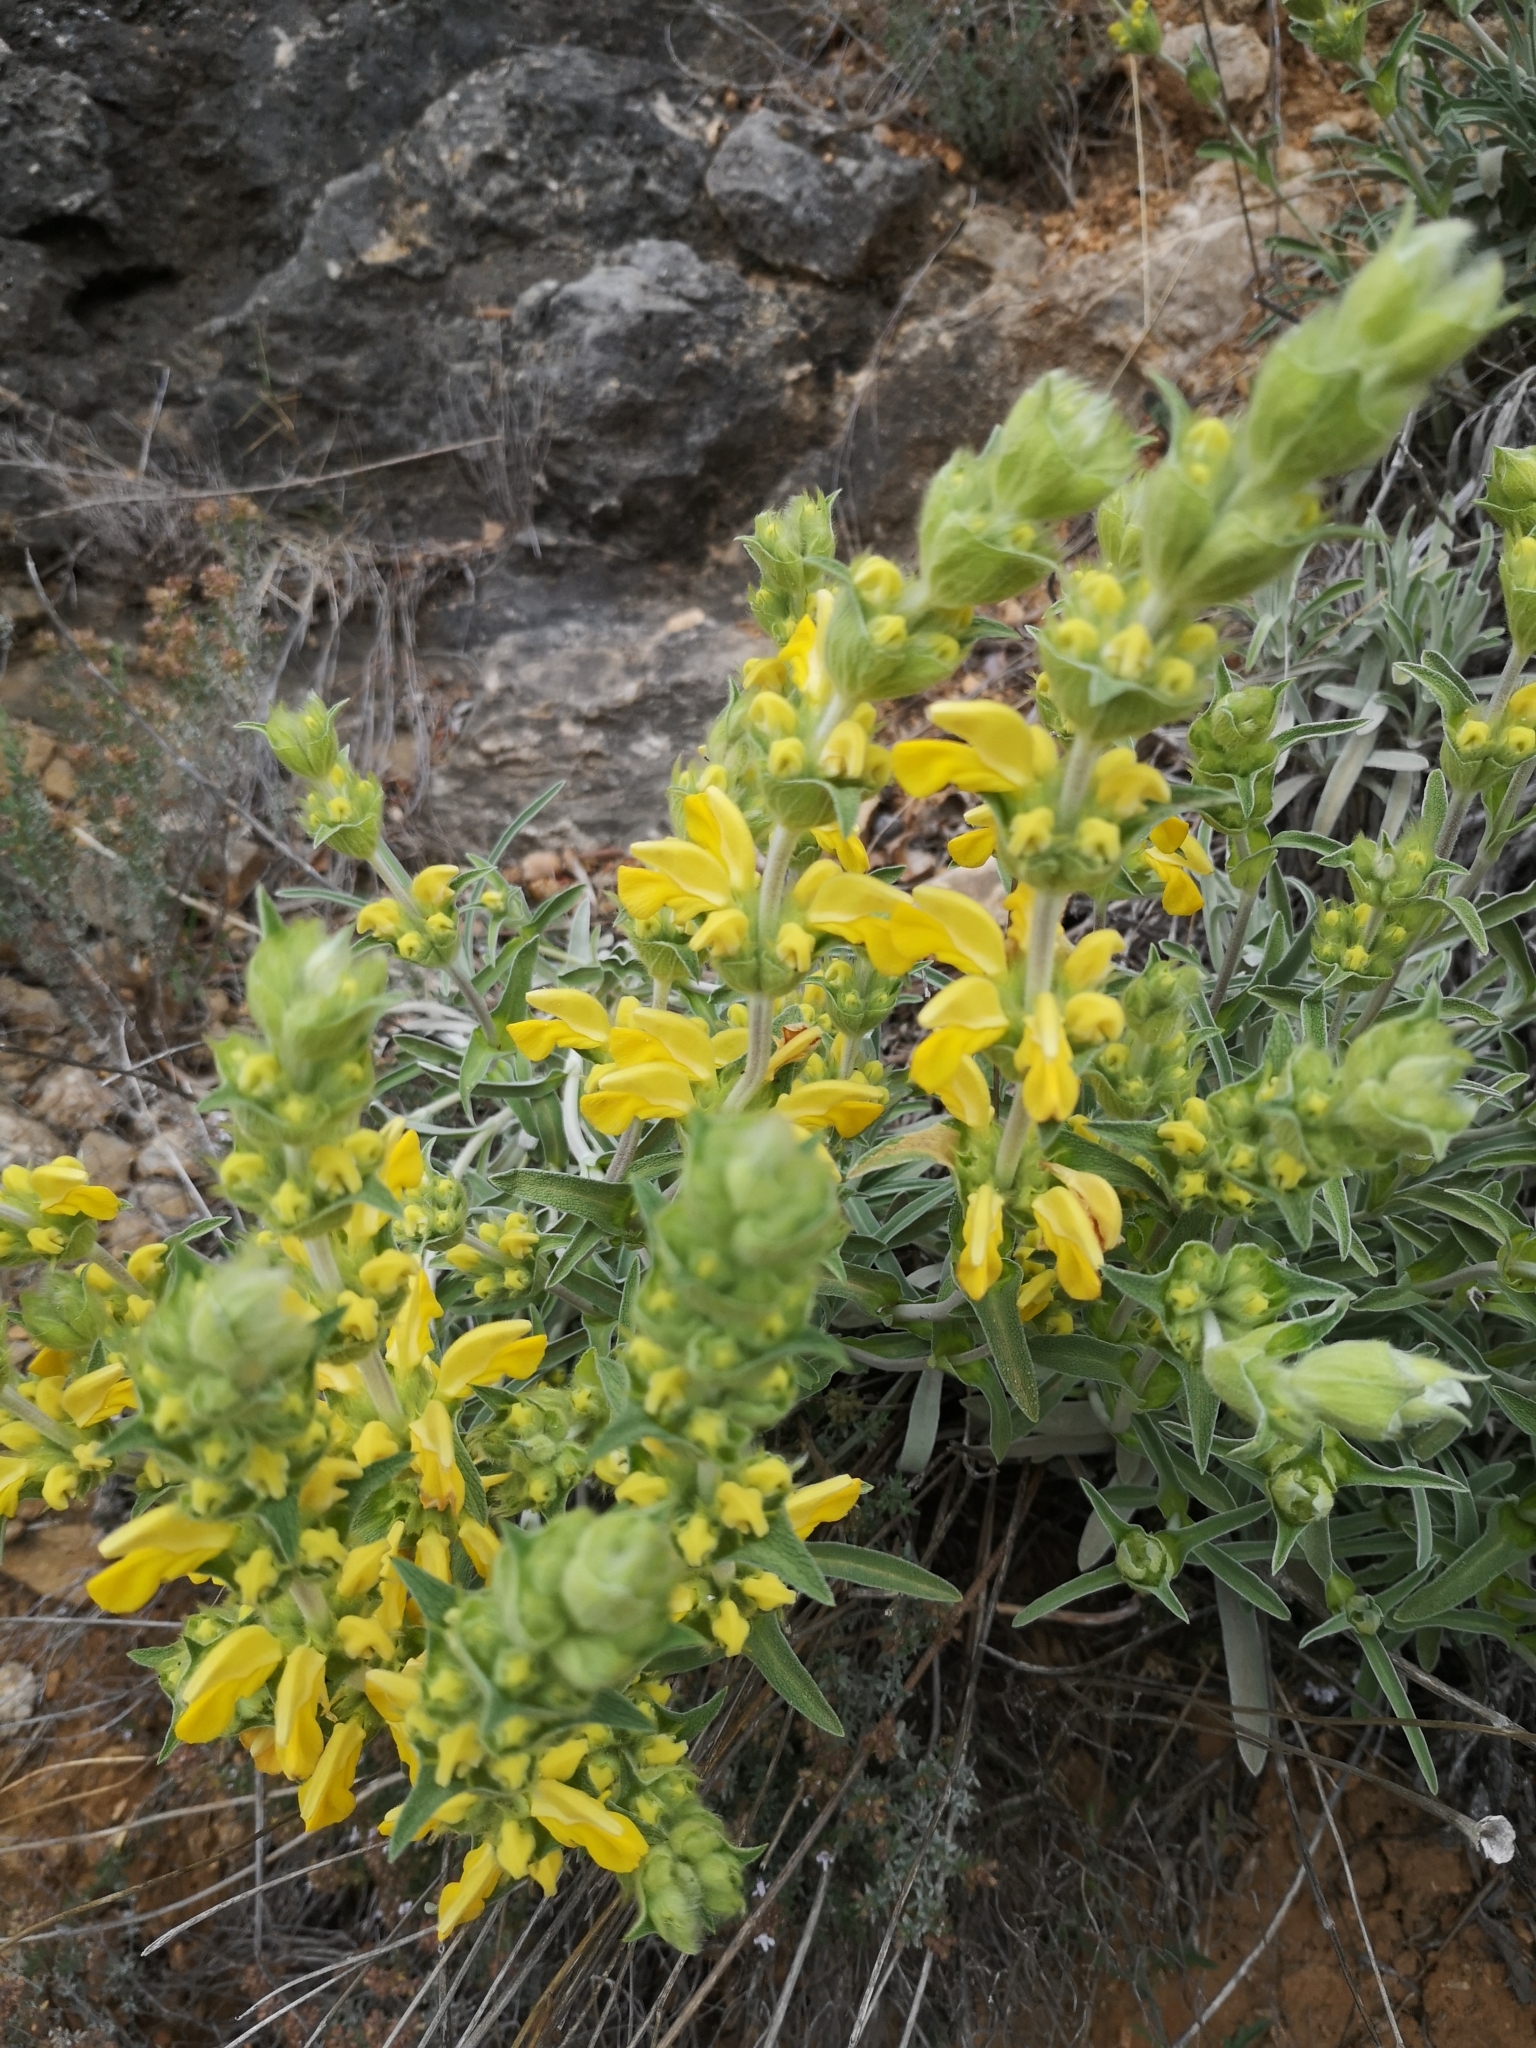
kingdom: Plantae
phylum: Tracheophyta
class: Magnoliopsida
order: Lamiales
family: Lamiaceae
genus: Phlomis
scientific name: Phlomis lychnitis
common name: Lampwickplant
